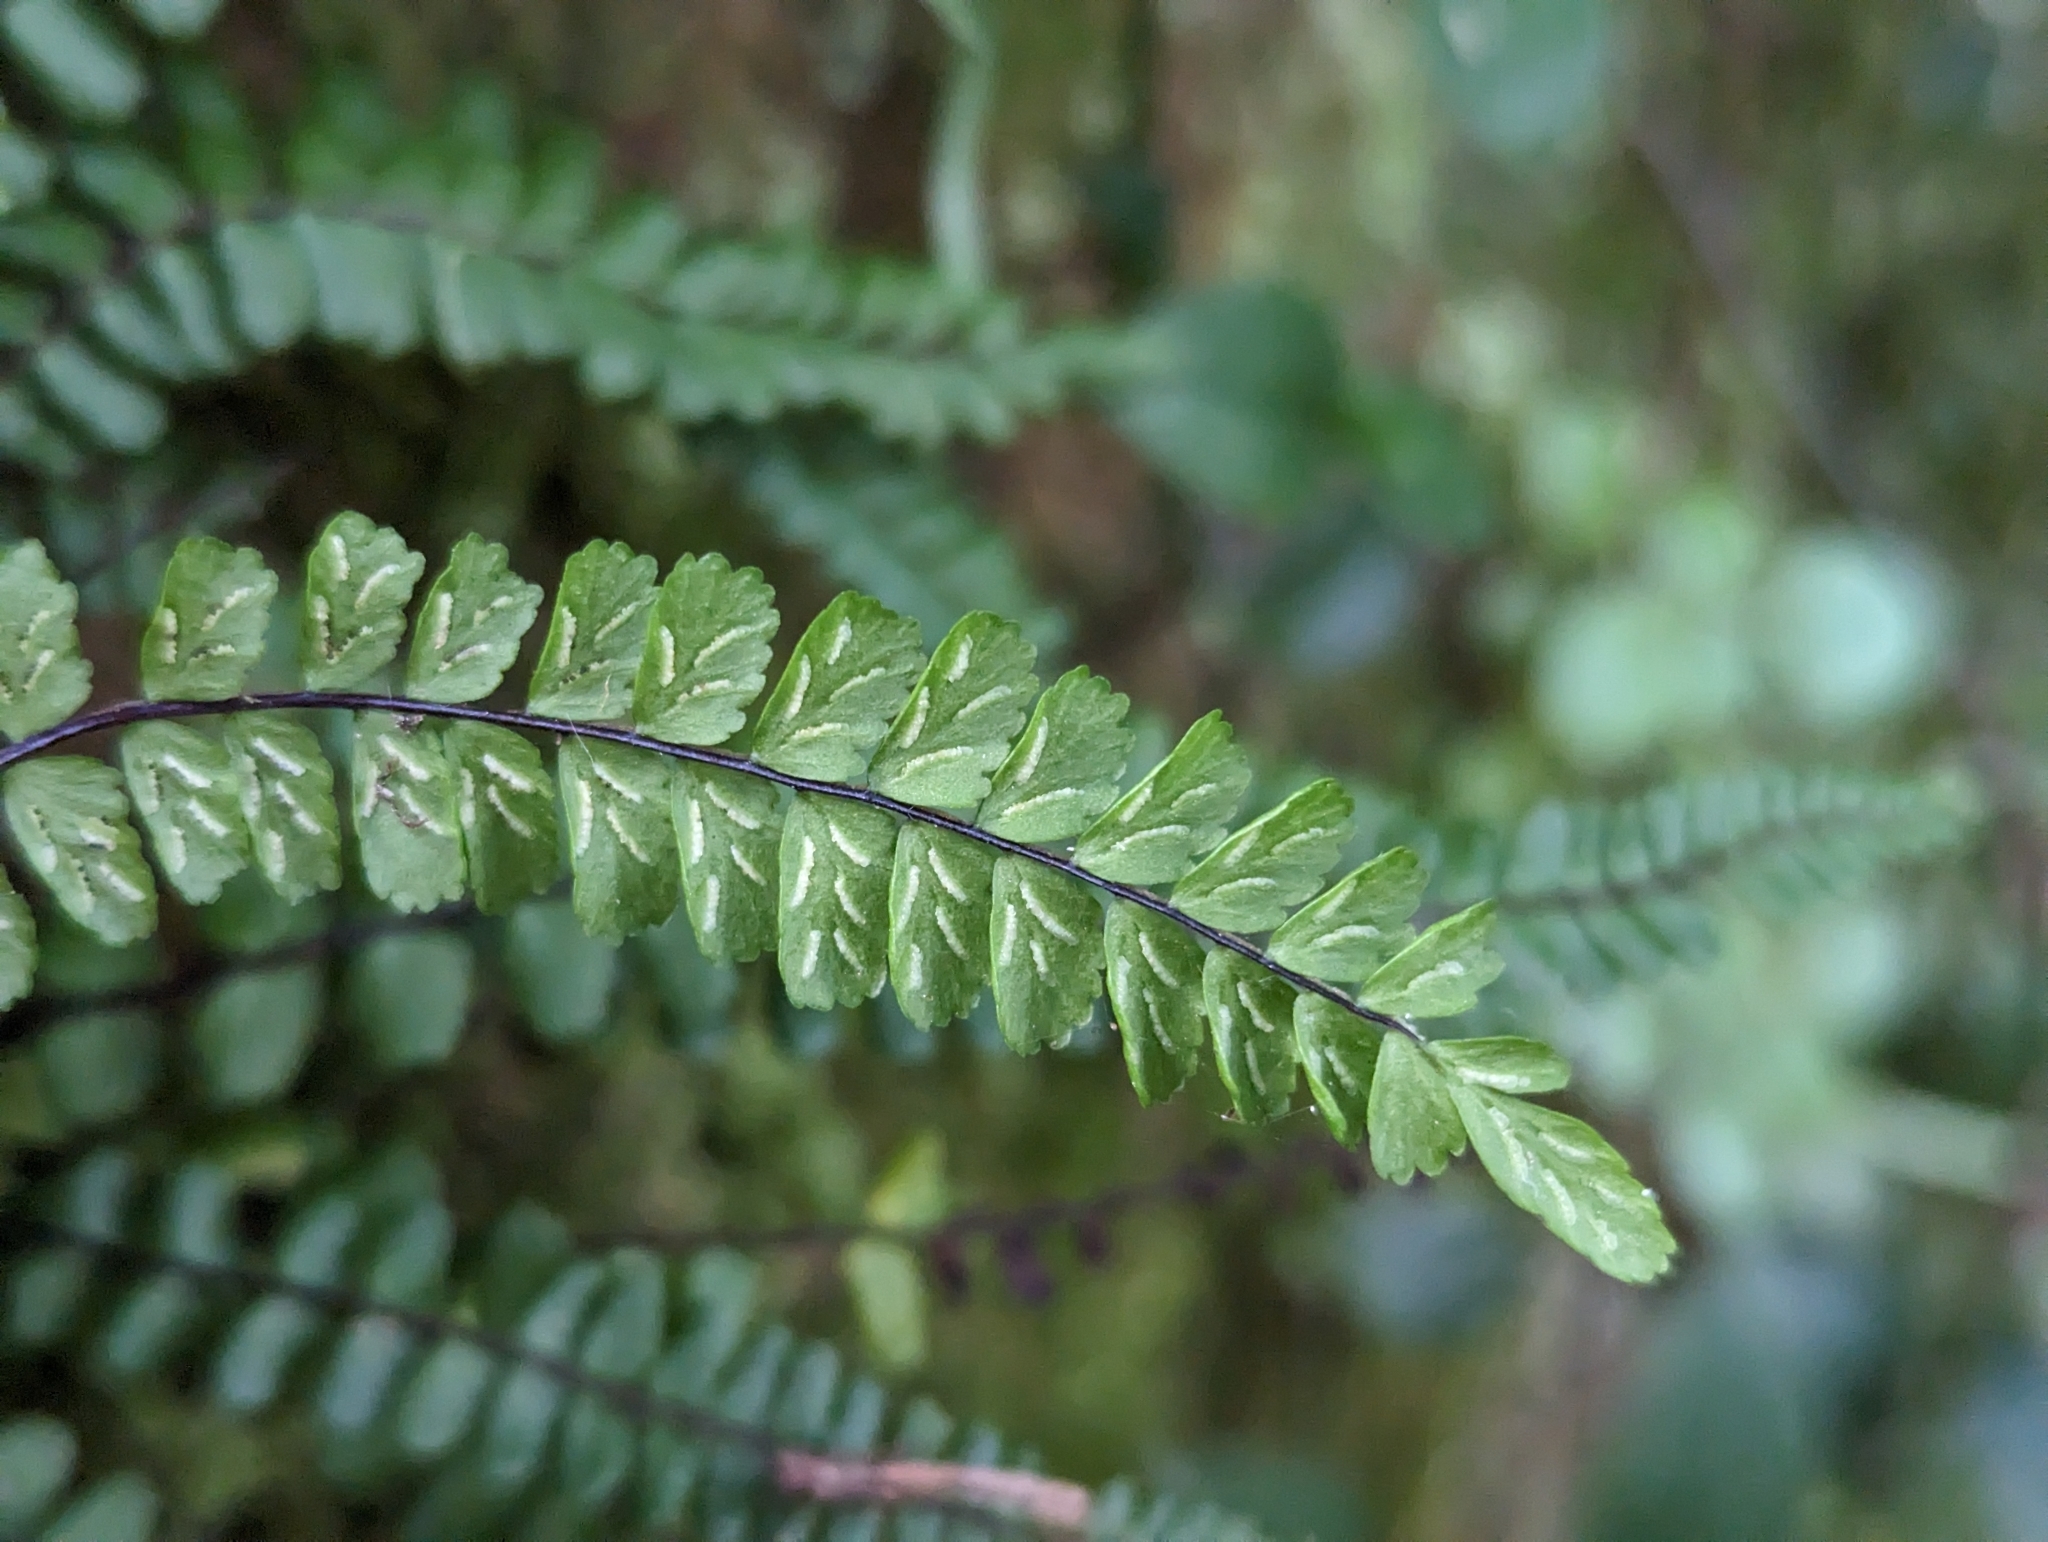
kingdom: Plantae
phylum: Tracheophyta
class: Polypodiopsida
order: Polypodiales
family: Aspleniaceae
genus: Asplenium
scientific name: Asplenium trichomanes
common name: Maidenhair spleenwort
